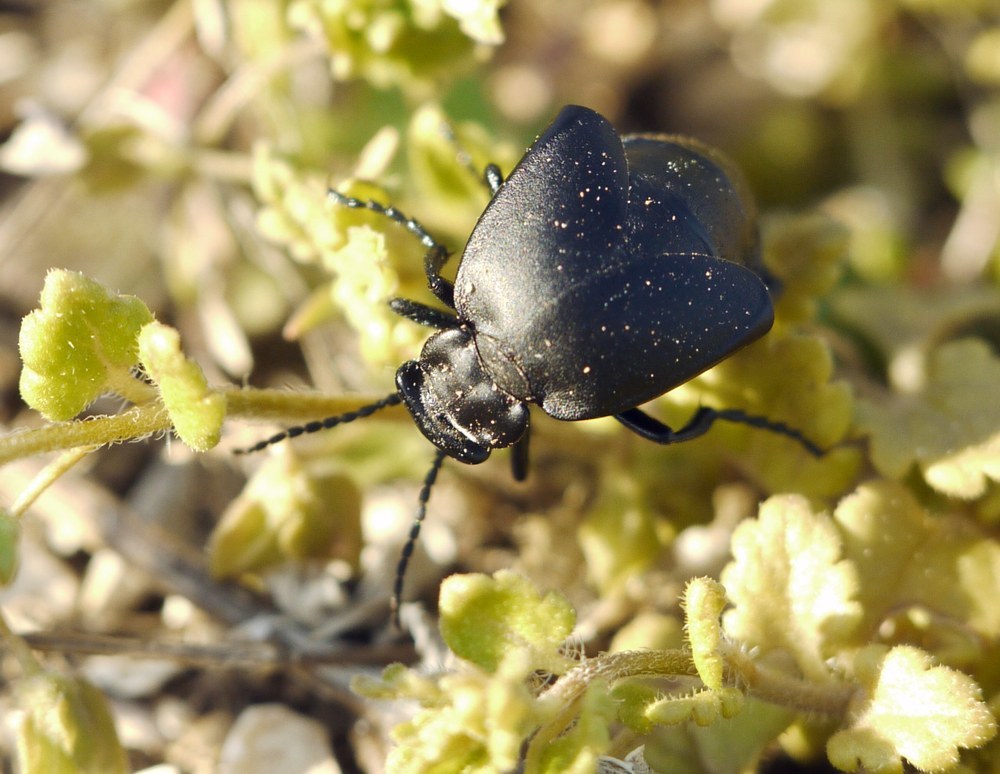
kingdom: Animalia
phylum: Arthropoda
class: Insecta
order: Coleoptera
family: Meloidae
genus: Meloe
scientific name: Meloe uralensis
